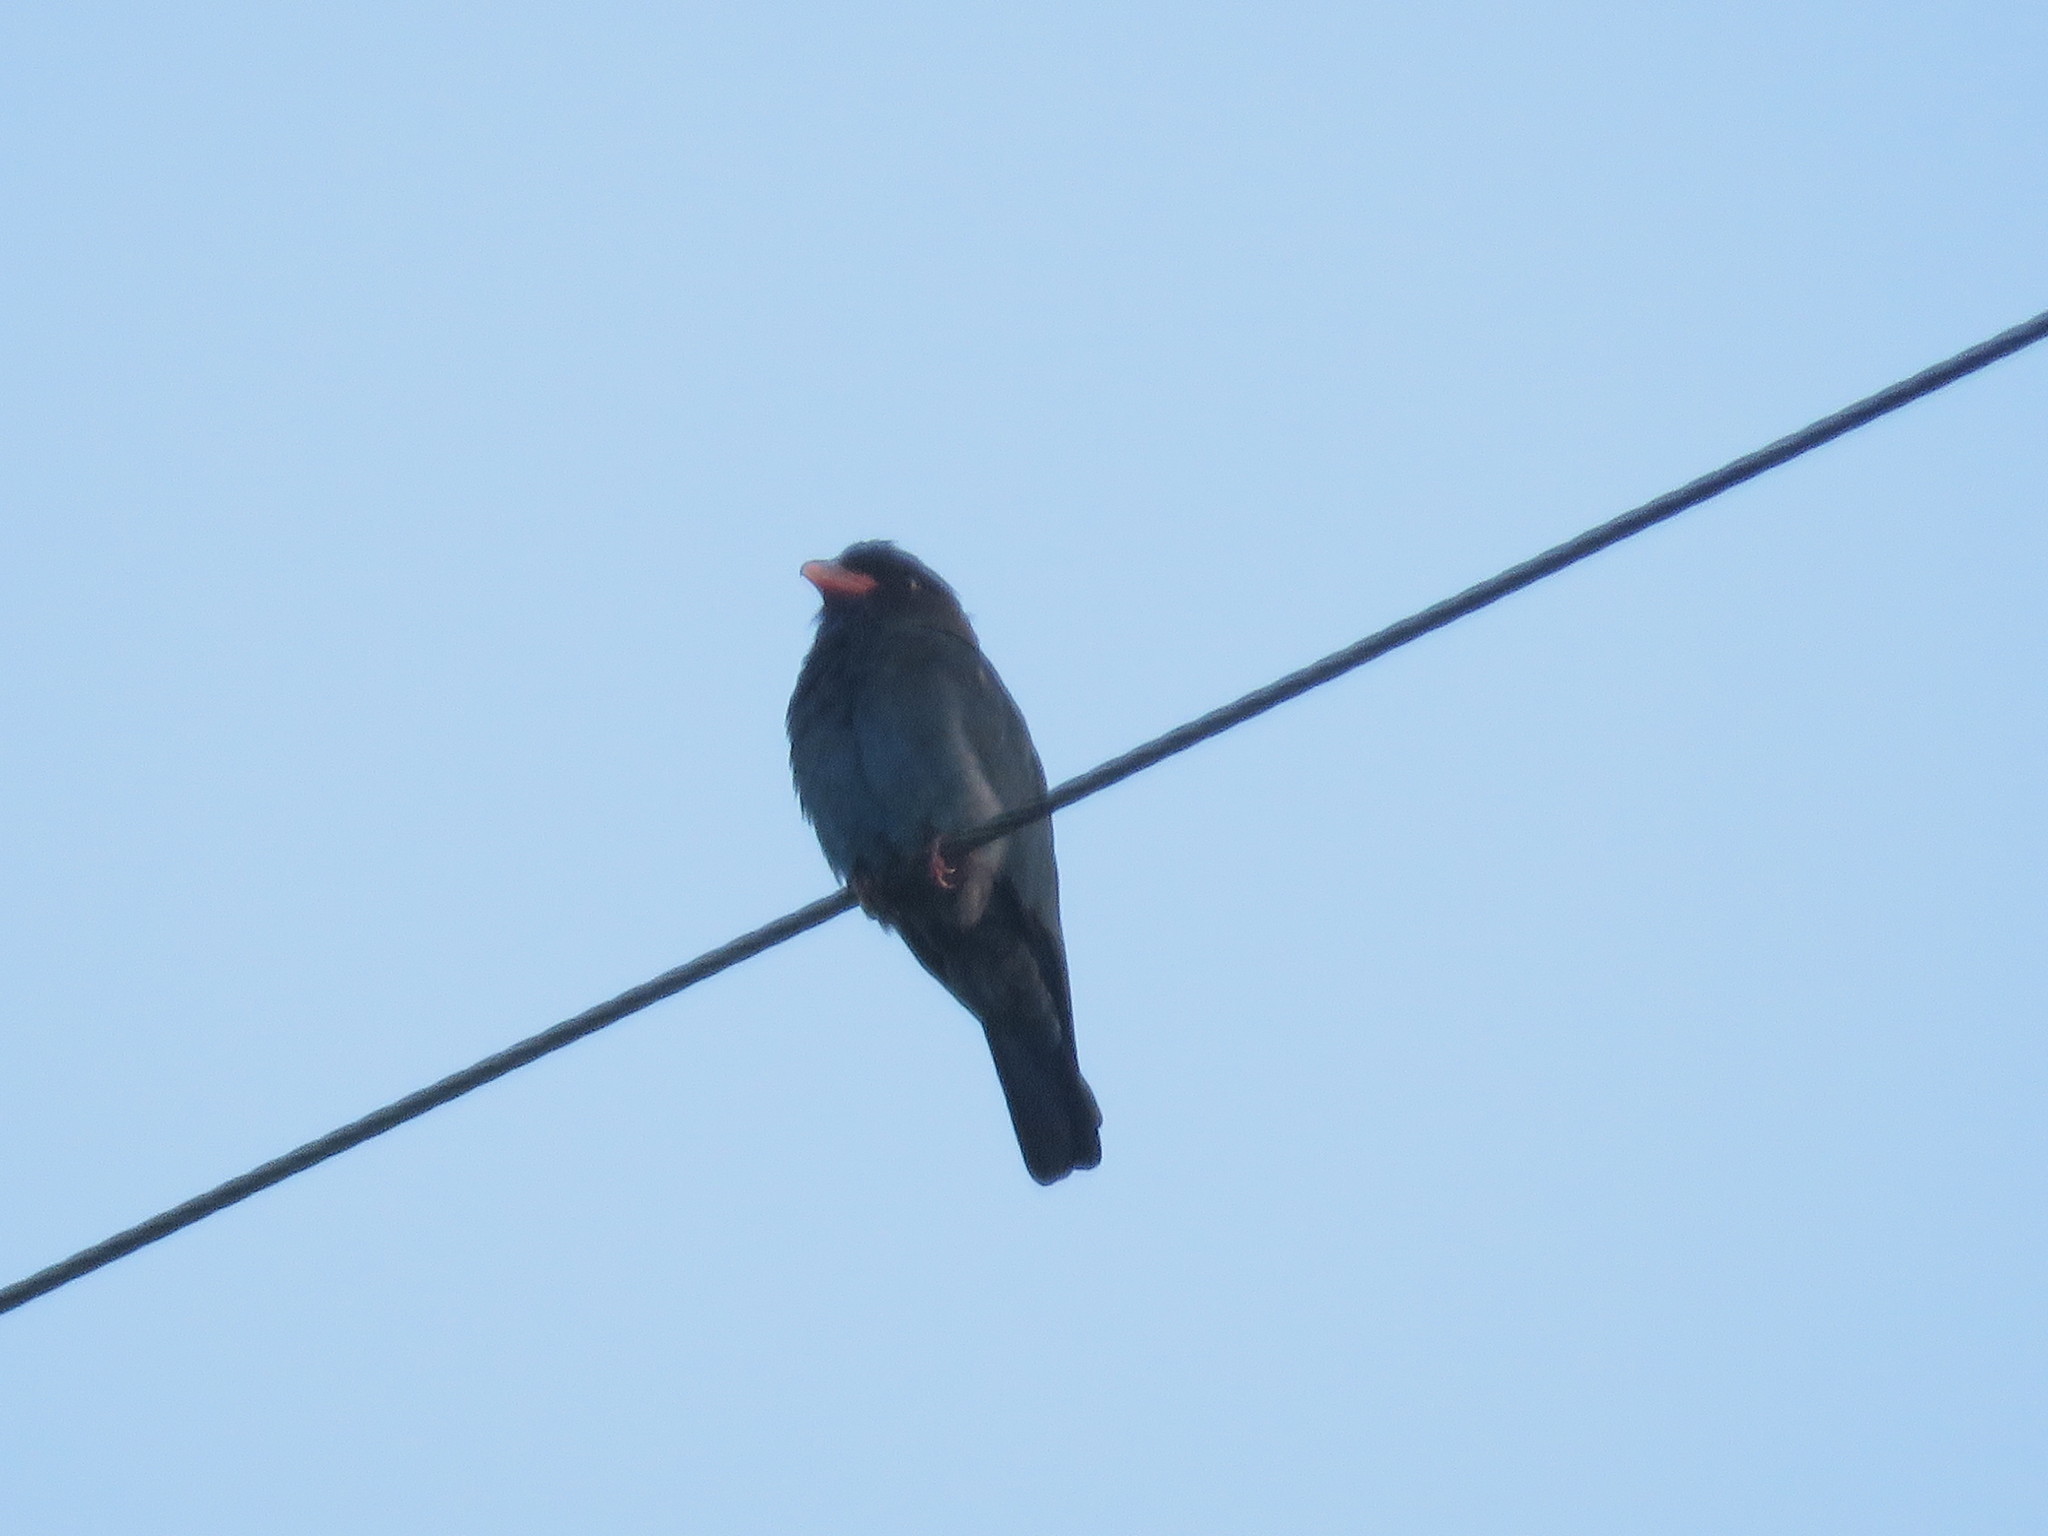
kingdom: Animalia
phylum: Chordata
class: Aves
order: Coraciiformes
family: Coraciidae
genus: Eurystomus
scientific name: Eurystomus orientalis
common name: Oriental dollarbird
